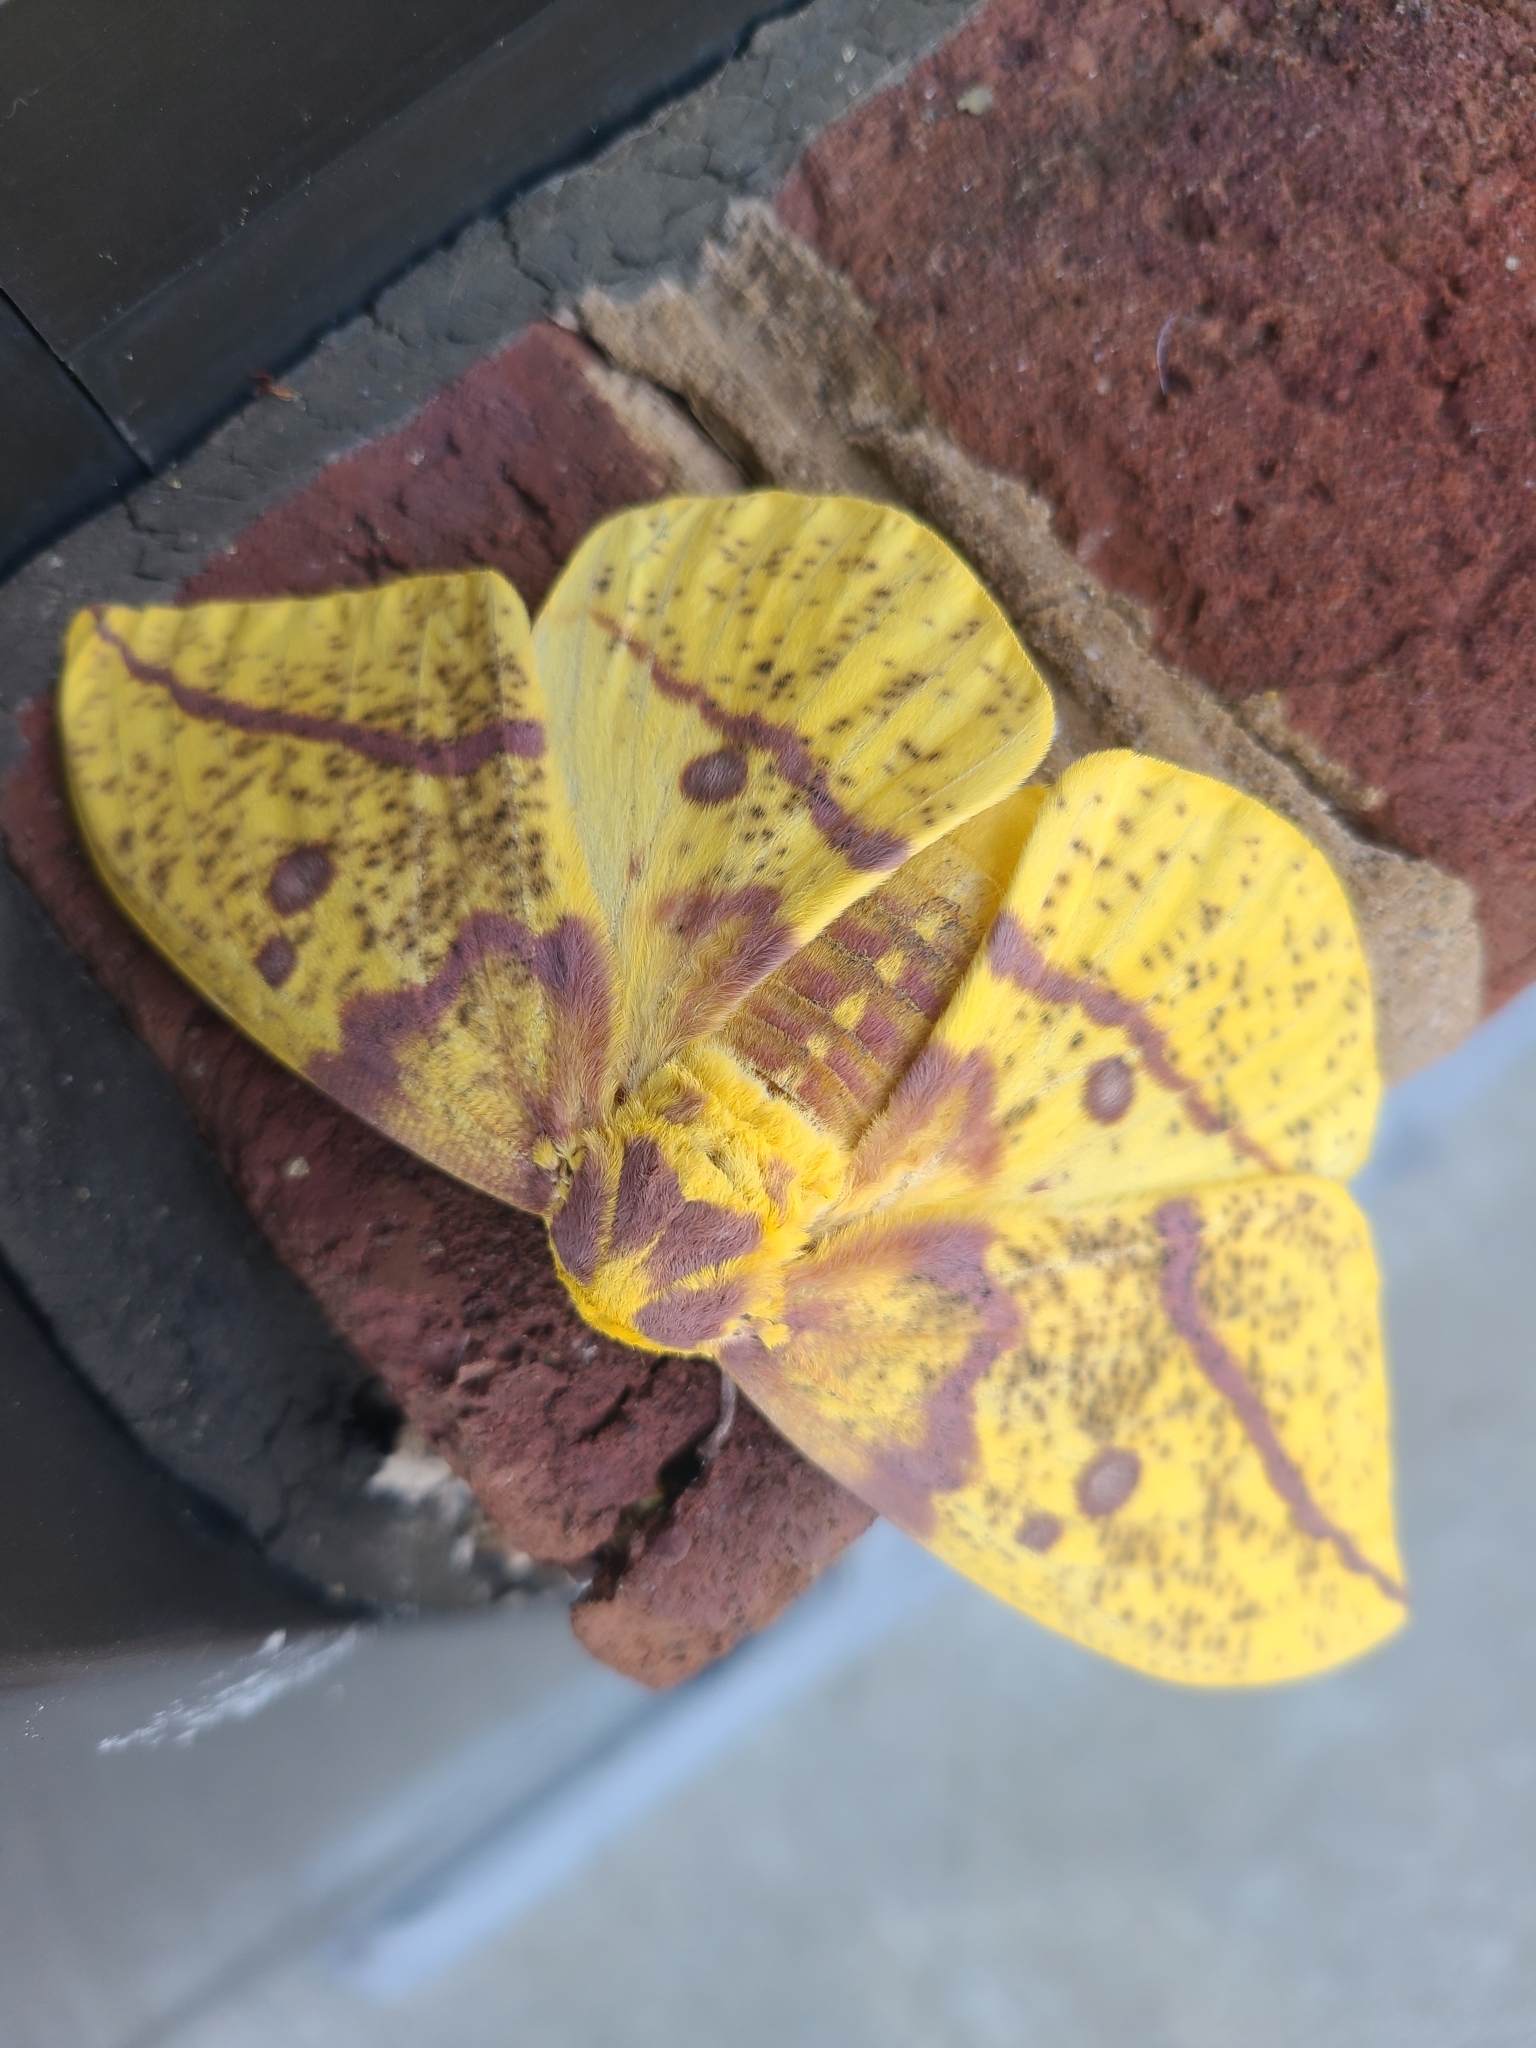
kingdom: Animalia
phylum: Arthropoda
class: Insecta
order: Lepidoptera
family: Saturniidae
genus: Eacles
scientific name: Eacles imperialis
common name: Imperial moth
